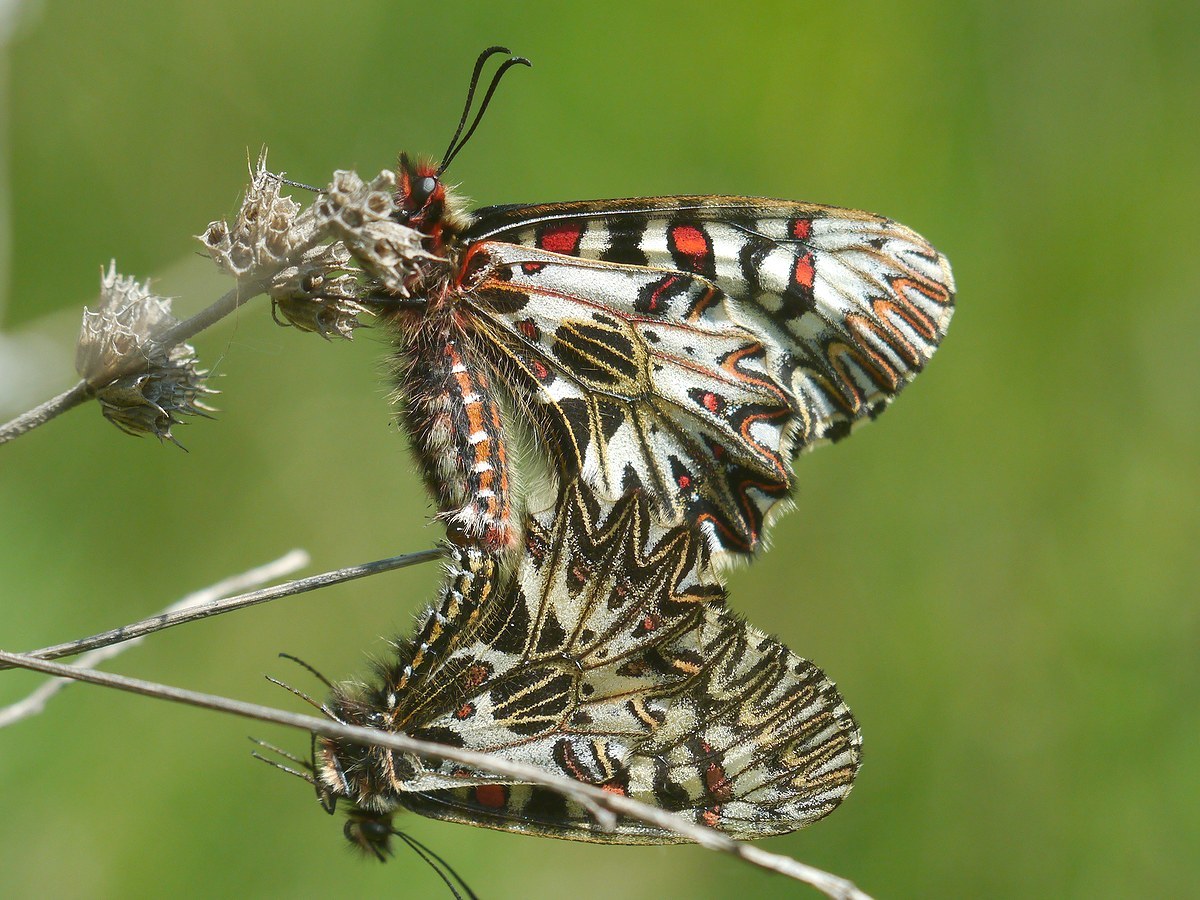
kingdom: Animalia
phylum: Arthropoda
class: Insecta
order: Lepidoptera
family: Papilionidae
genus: Zerynthia
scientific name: Zerynthia polyxena
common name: Southern festoon
